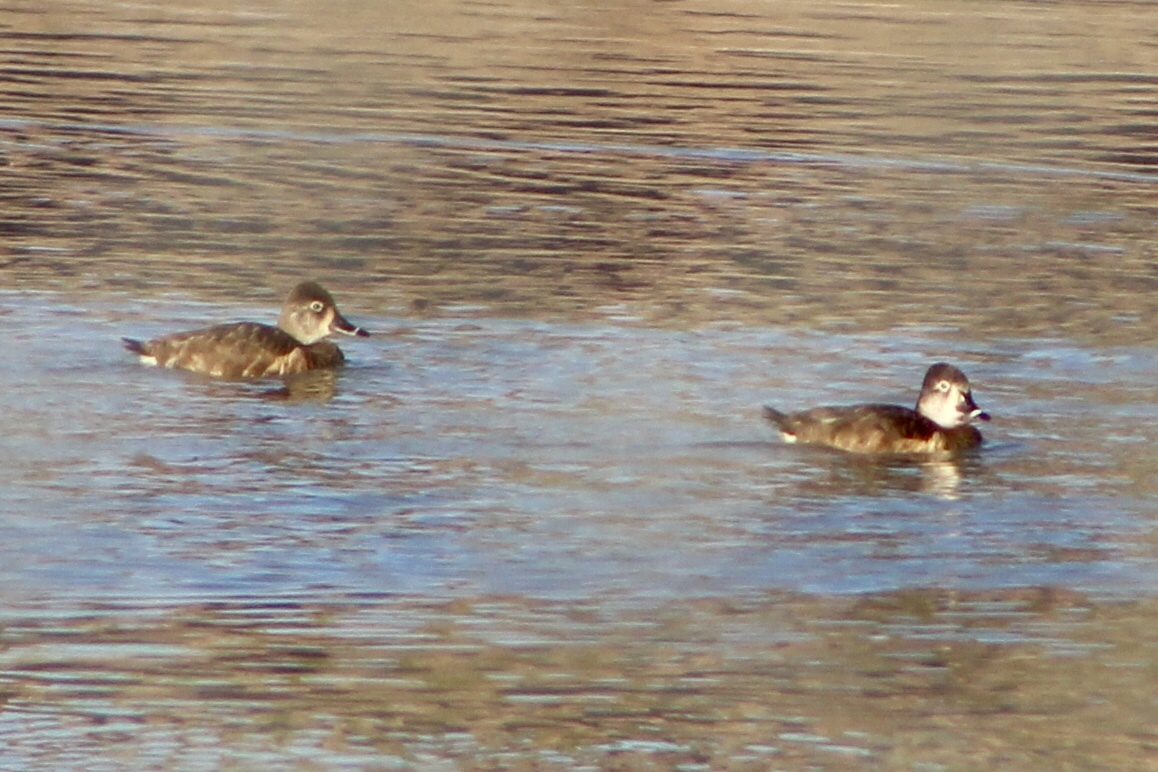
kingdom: Animalia
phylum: Chordata
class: Aves
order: Anseriformes
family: Anatidae
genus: Aythya
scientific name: Aythya collaris
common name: Ring-necked duck
